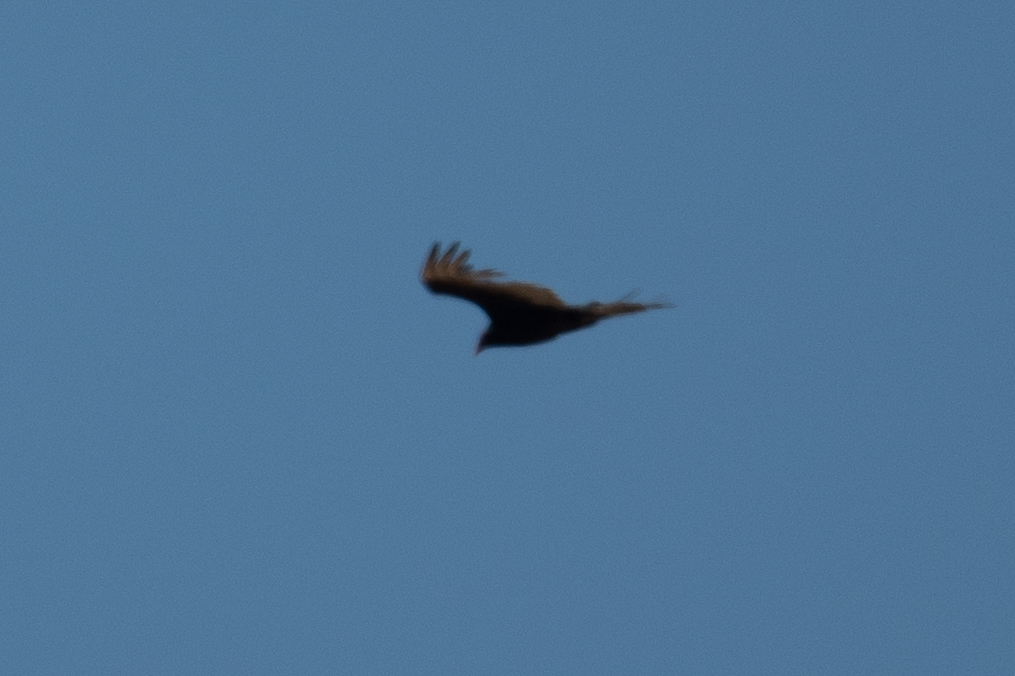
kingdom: Animalia
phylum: Chordata
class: Aves
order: Accipitriformes
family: Cathartidae
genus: Cathartes
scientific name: Cathartes aura
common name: Turkey vulture
